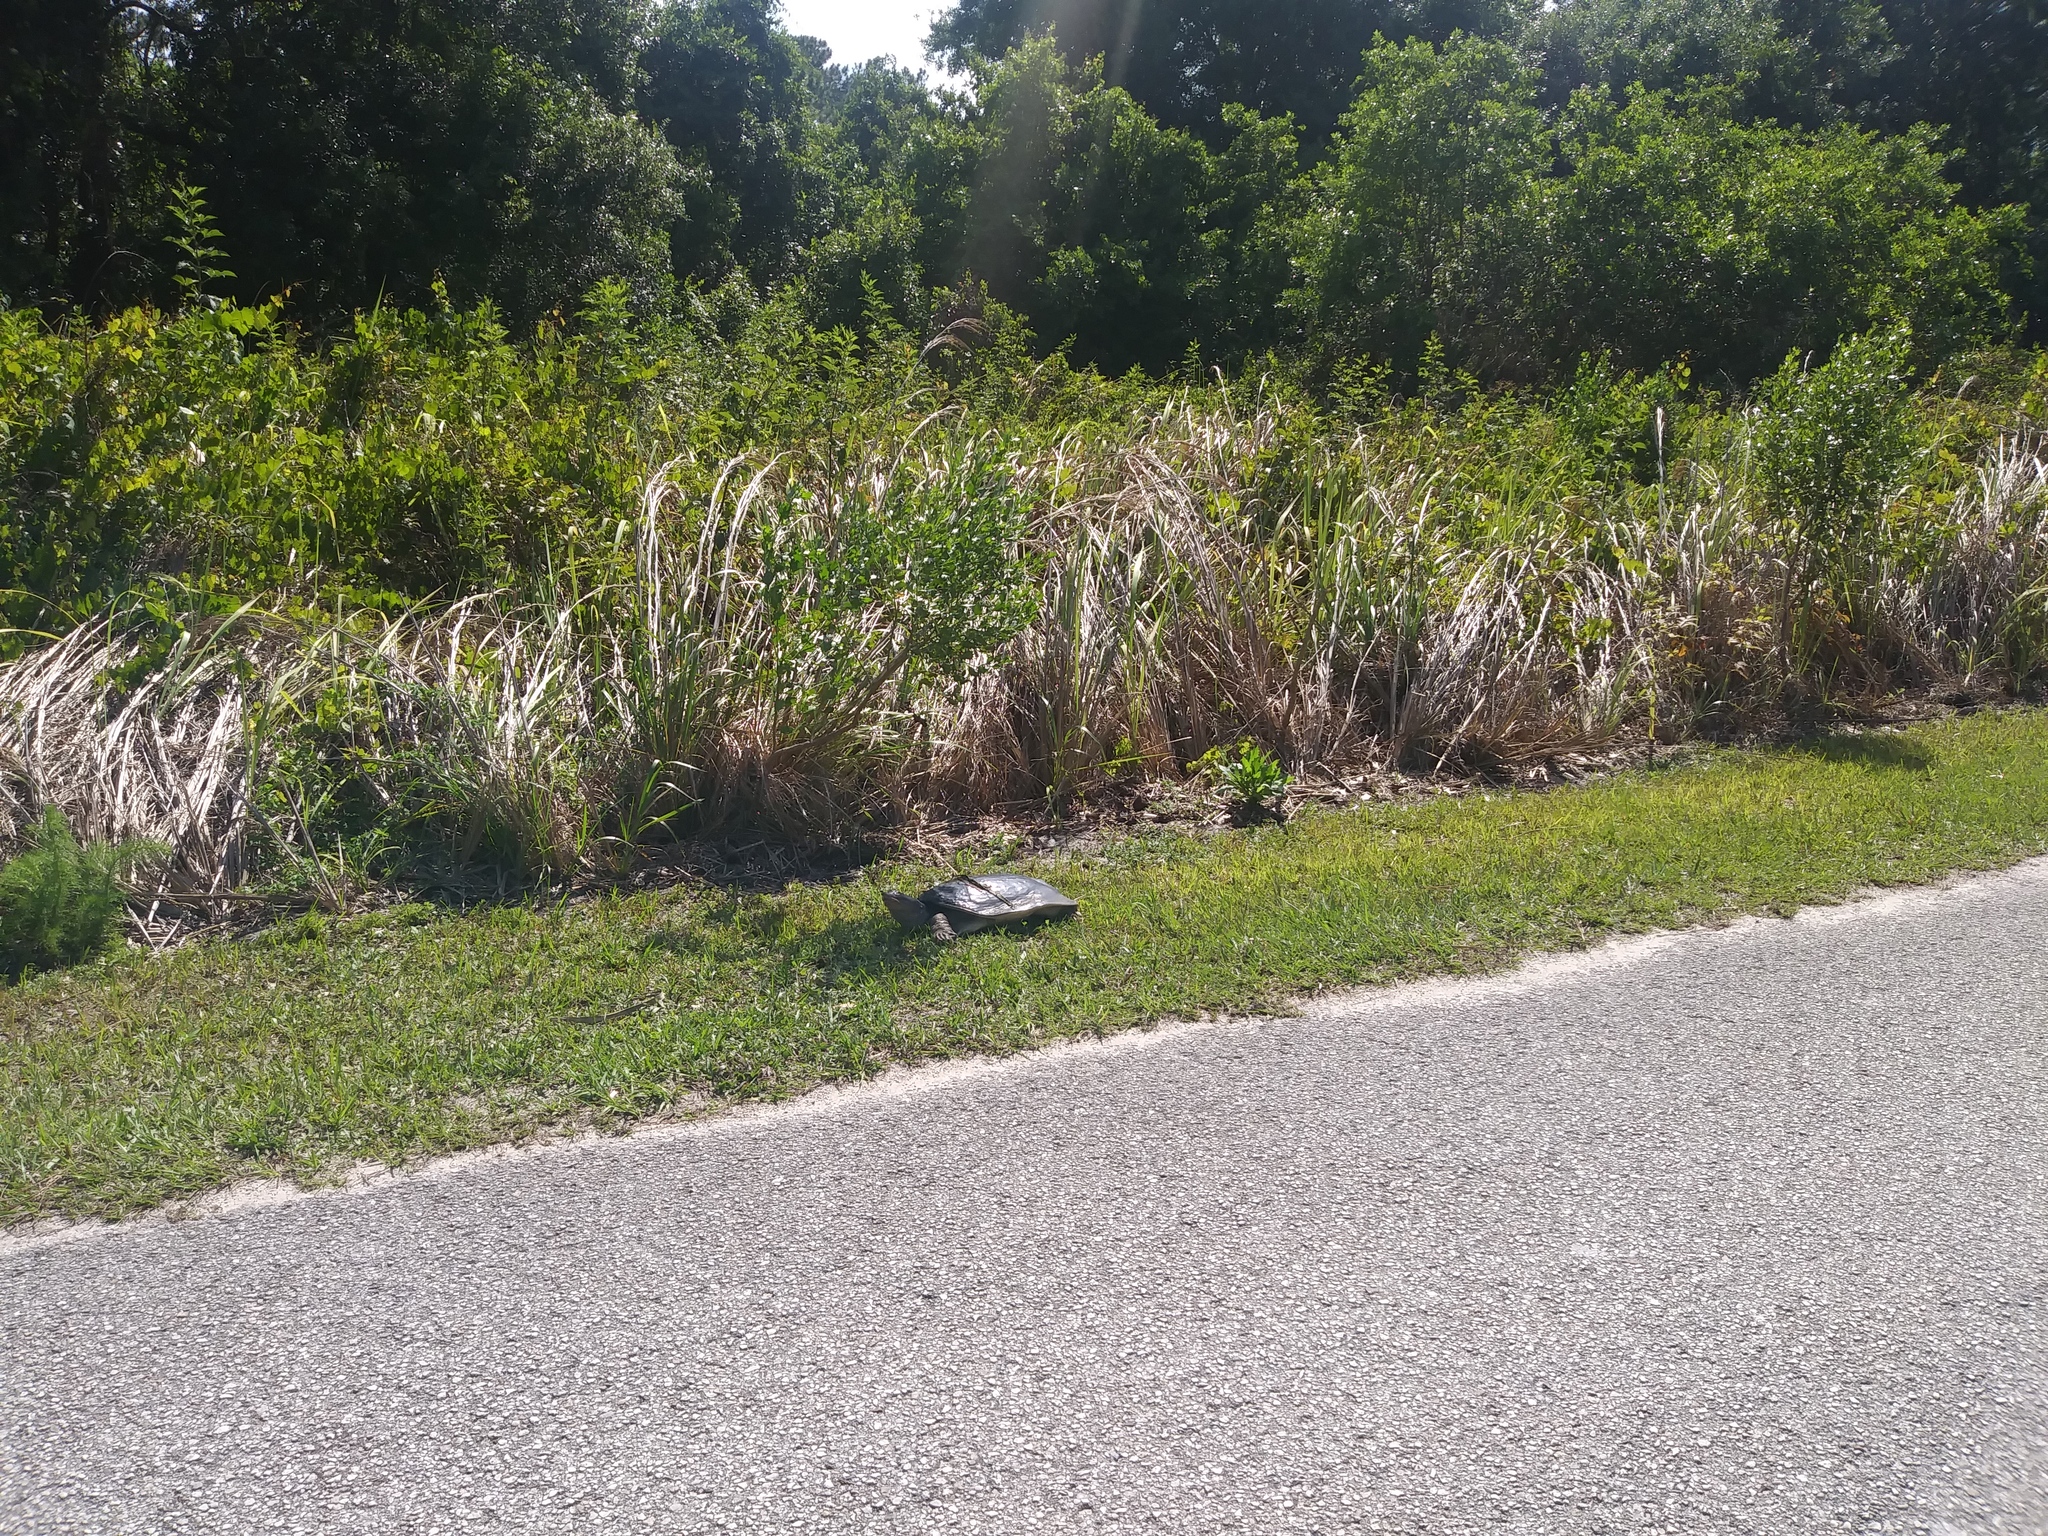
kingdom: Animalia
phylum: Chordata
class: Testudines
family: Trionychidae
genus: Apalone
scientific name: Apalone ferox
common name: Florida softshell turtle
